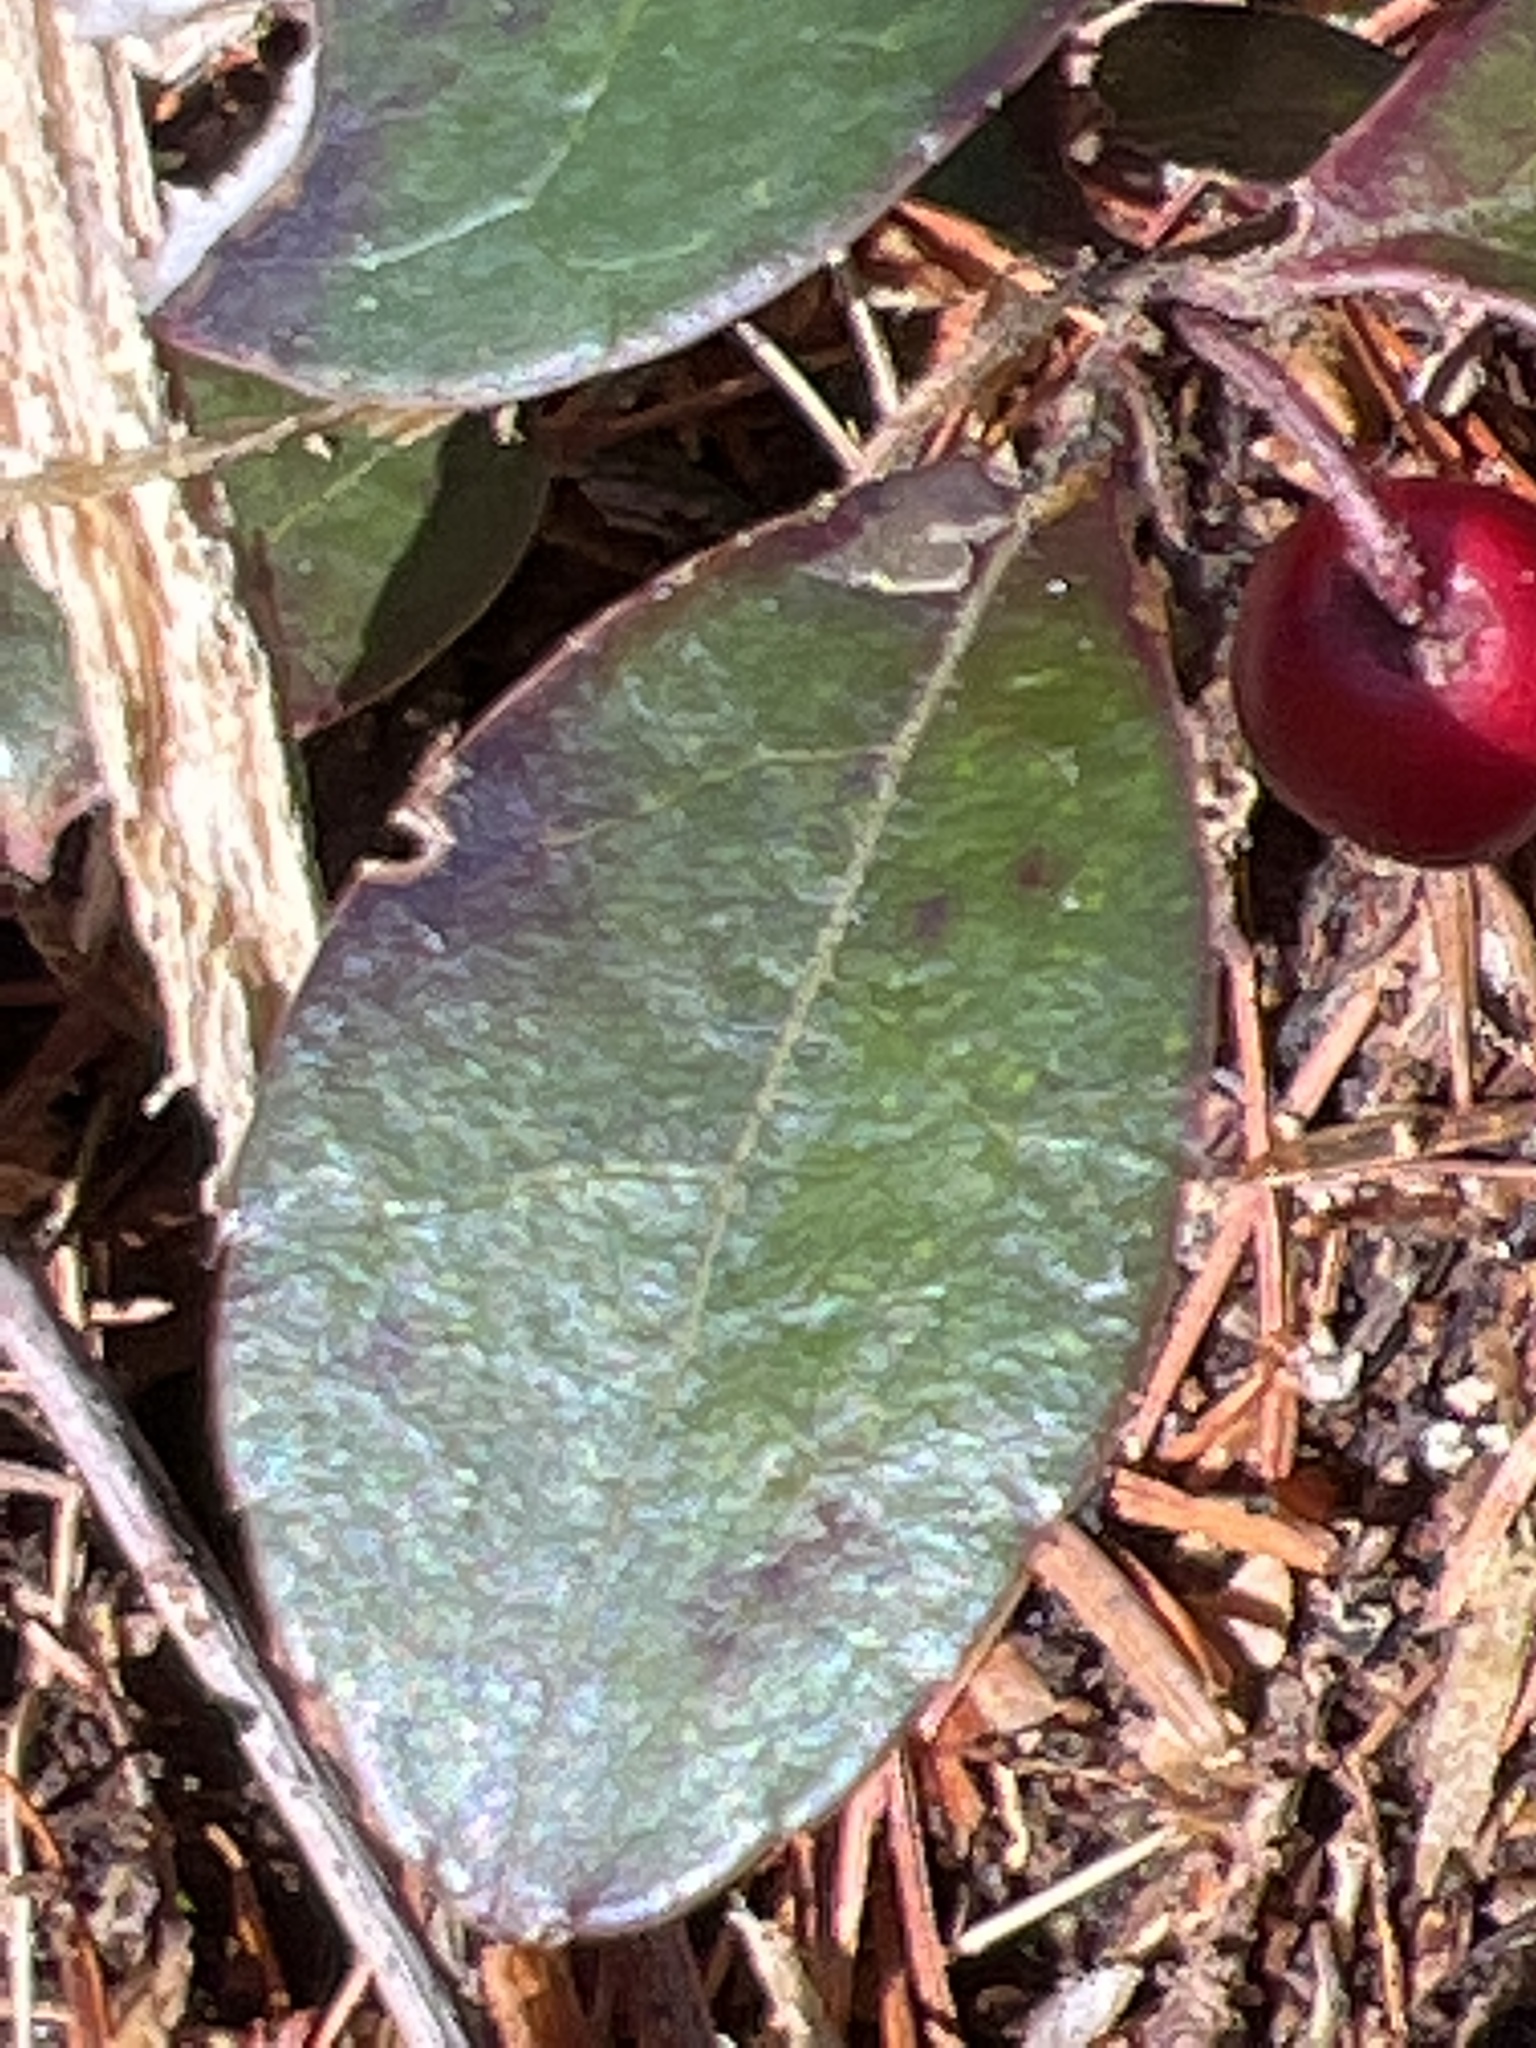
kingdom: Plantae
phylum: Tracheophyta
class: Magnoliopsida
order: Ericales
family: Ericaceae
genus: Gaultheria
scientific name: Gaultheria procumbens
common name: Checkerberry
